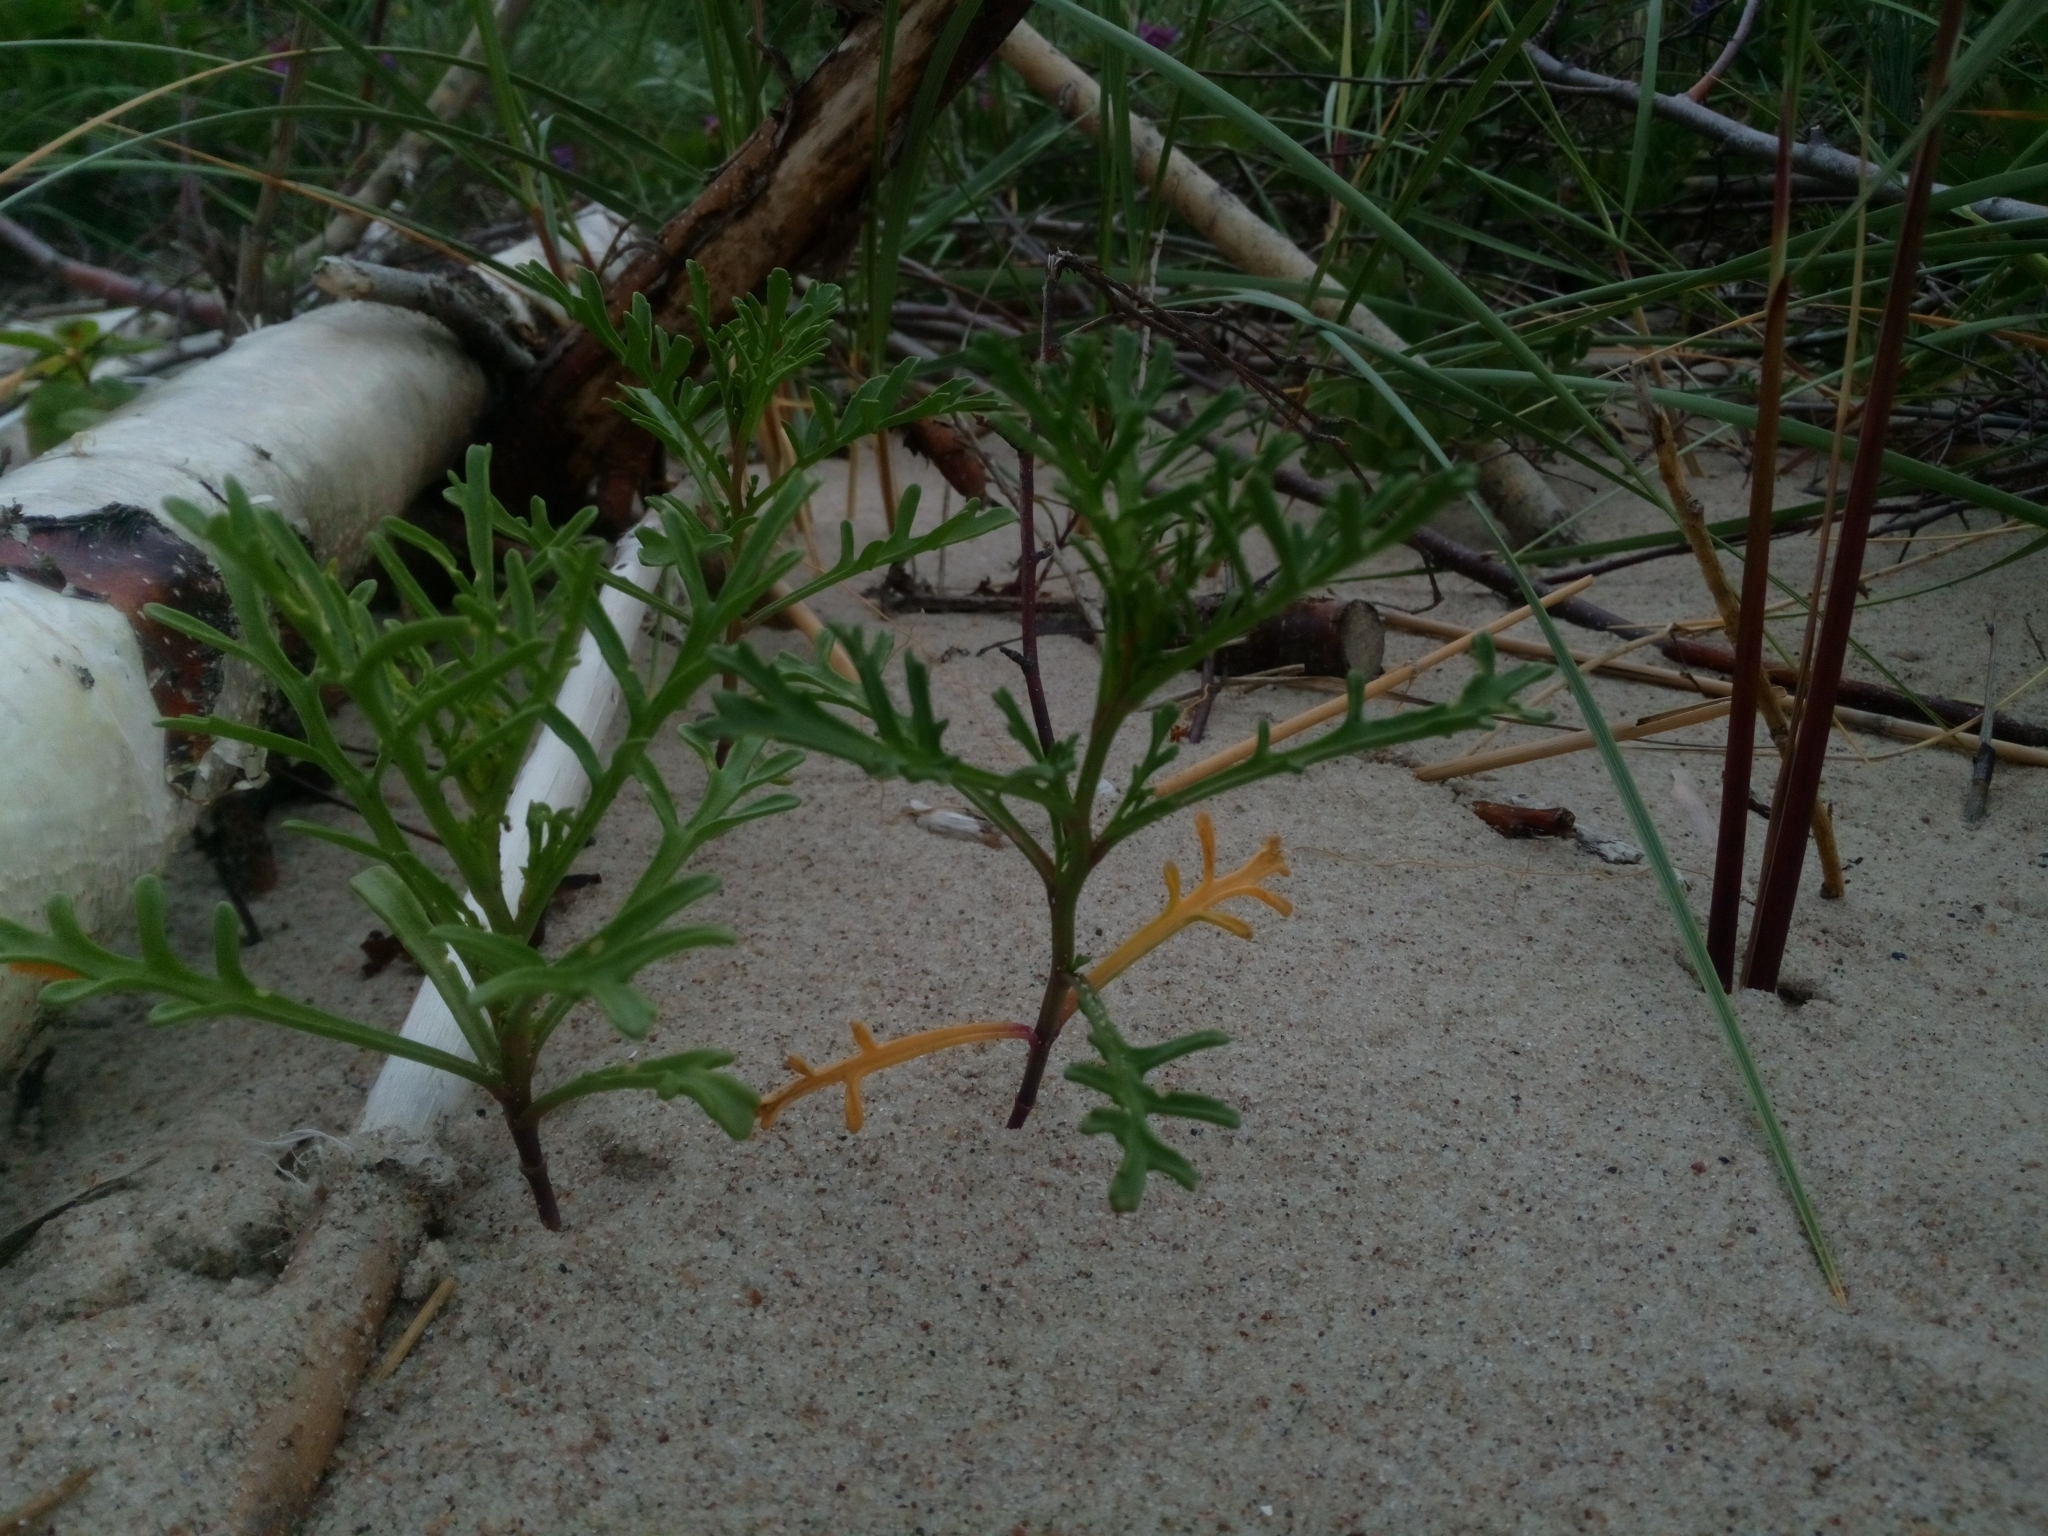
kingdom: Plantae
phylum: Tracheophyta
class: Magnoliopsida
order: Brassicales
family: Brassicaceae
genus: Cakile
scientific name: Cakile maritima
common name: Sea rocket
